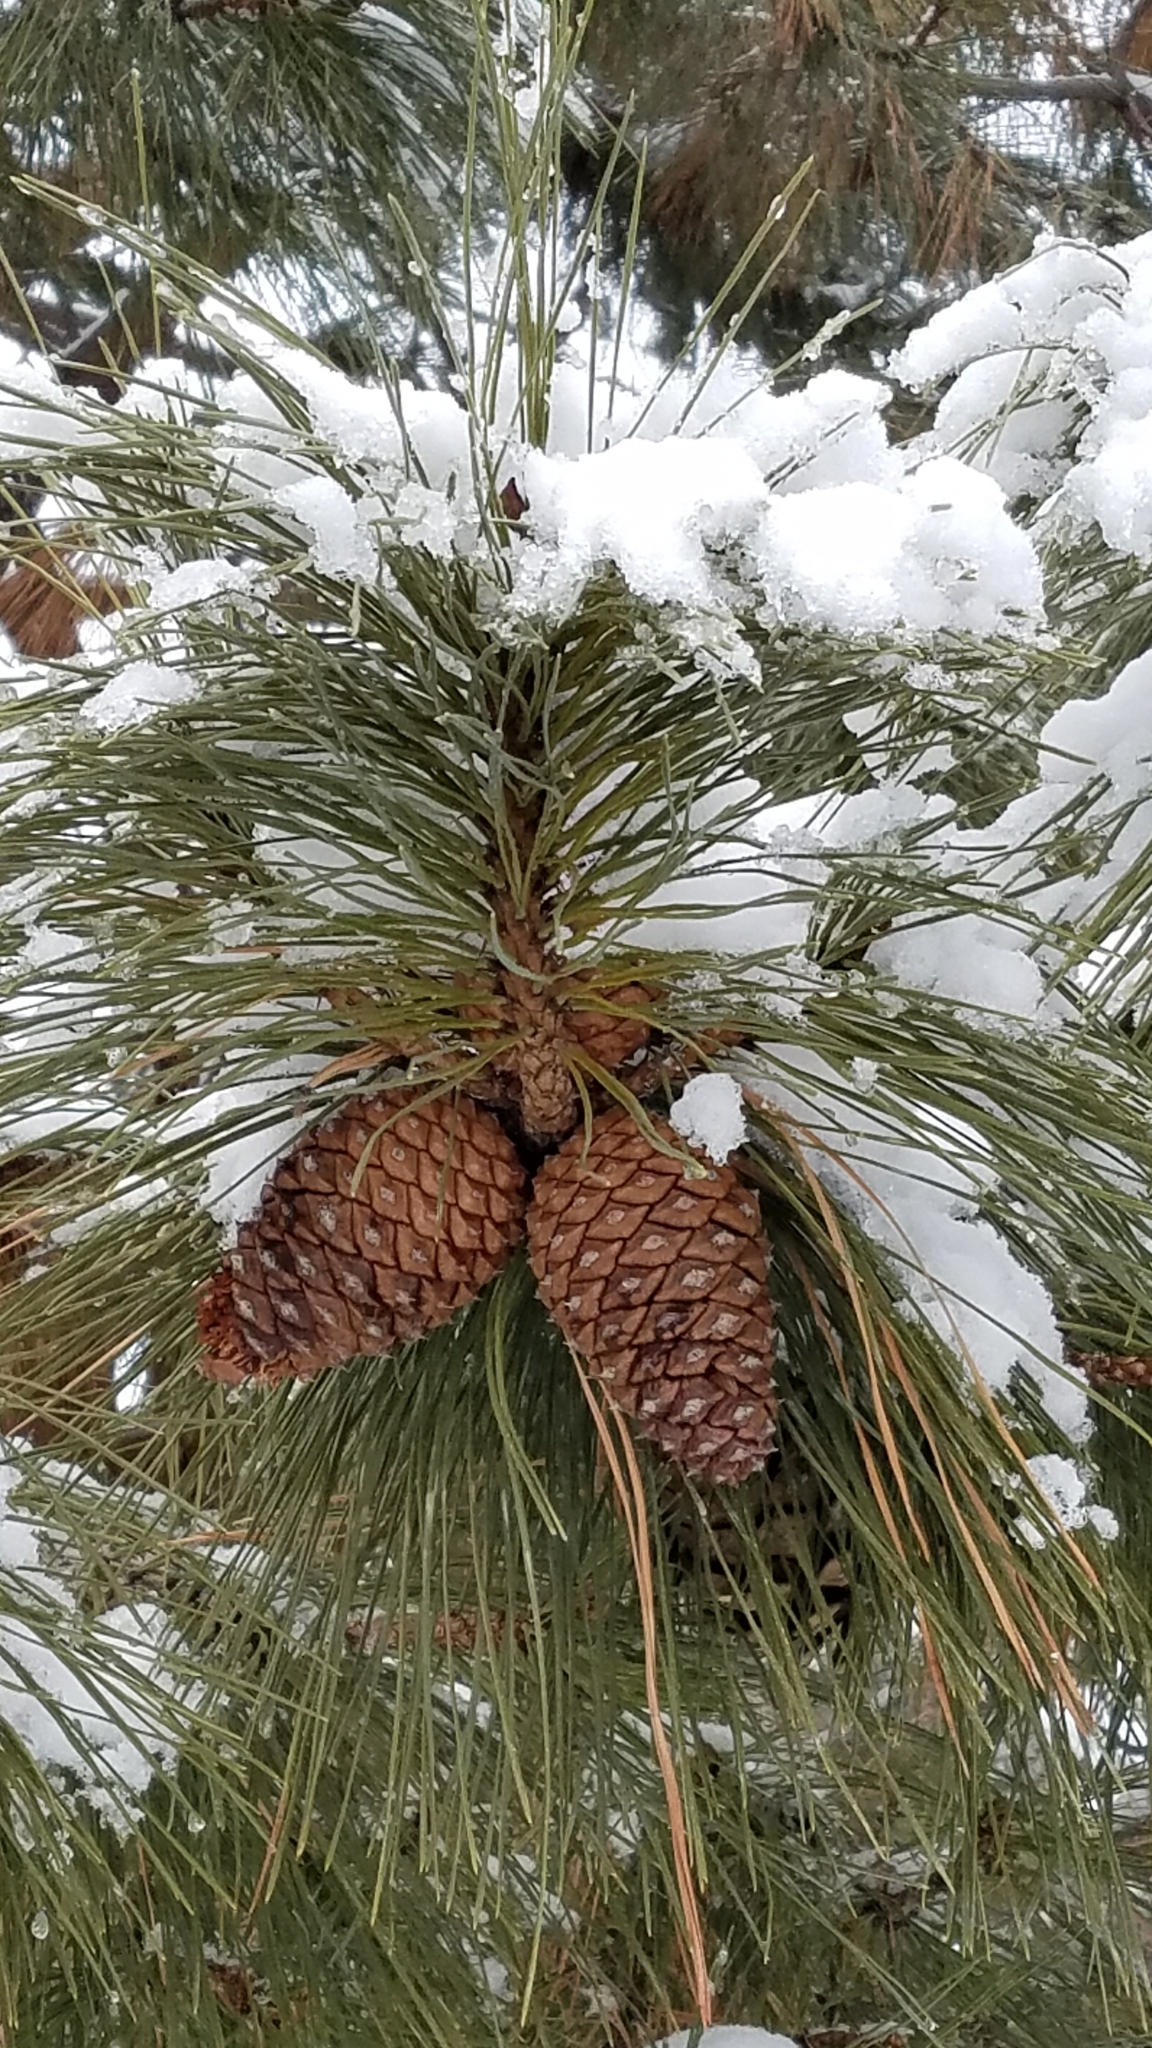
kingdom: Plantae
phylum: Tracheophyta
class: Pinopsida
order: Pinales
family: Pinaceae
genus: Pinus
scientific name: Pinus ponderosa
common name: Western yellow-pine
